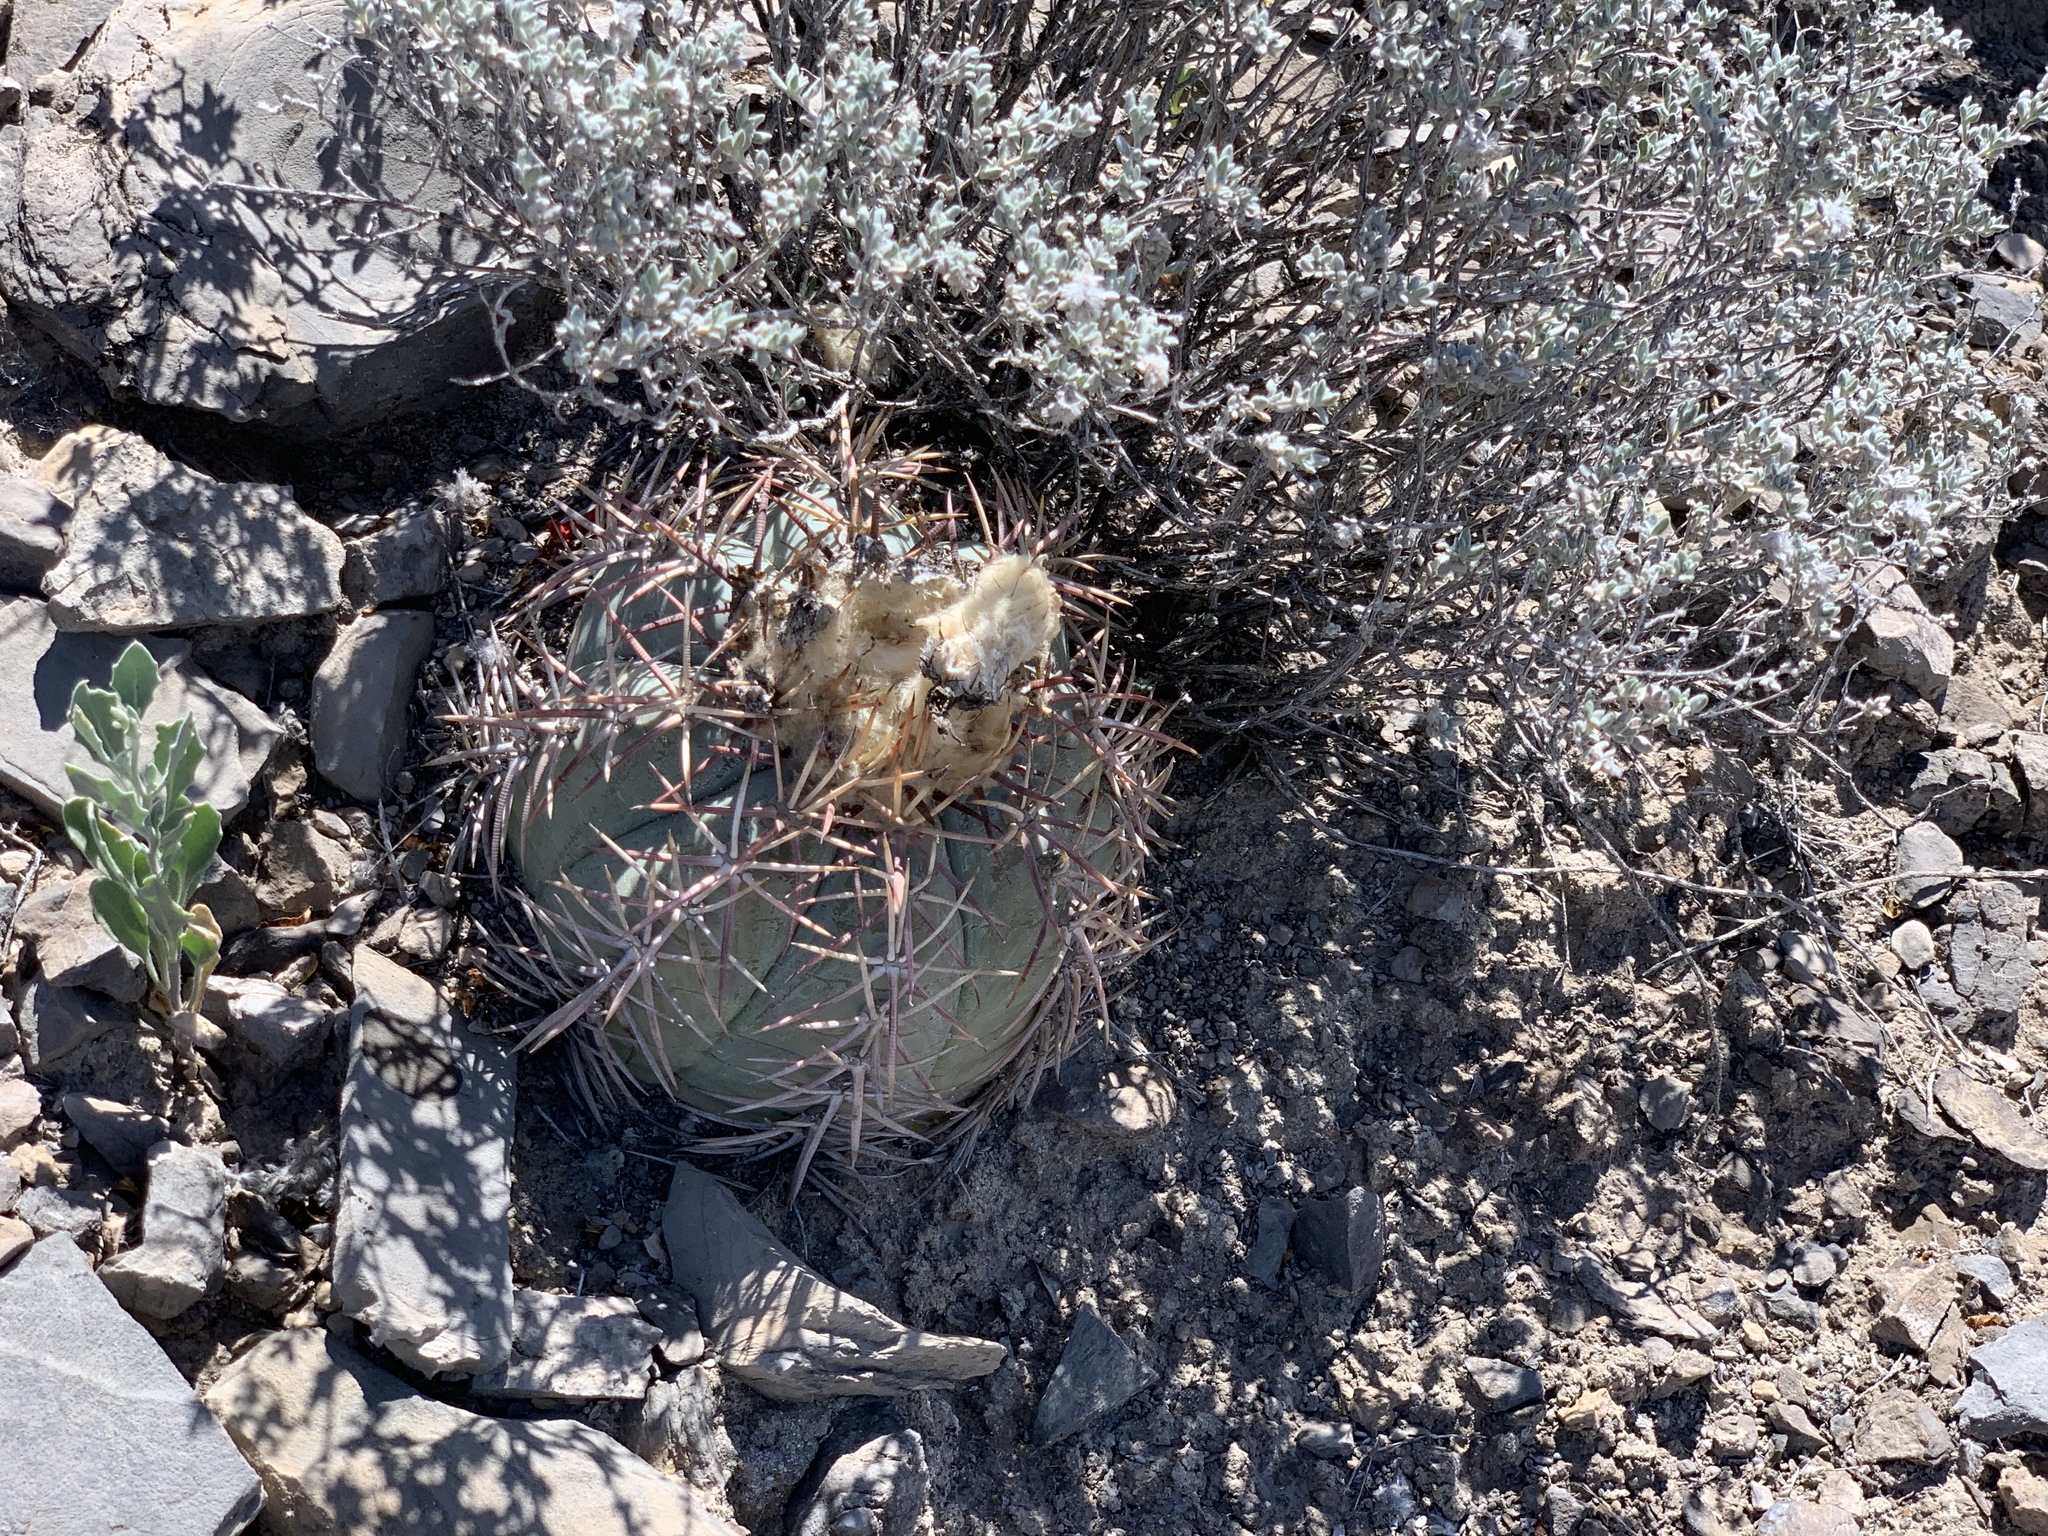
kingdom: Plantae
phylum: Tracheophyta
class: Magnoliopsida
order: Caryophyllales
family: Cactaceae
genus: Echinocactus
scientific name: Echinocactus horizonthalonius
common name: Devilshead
